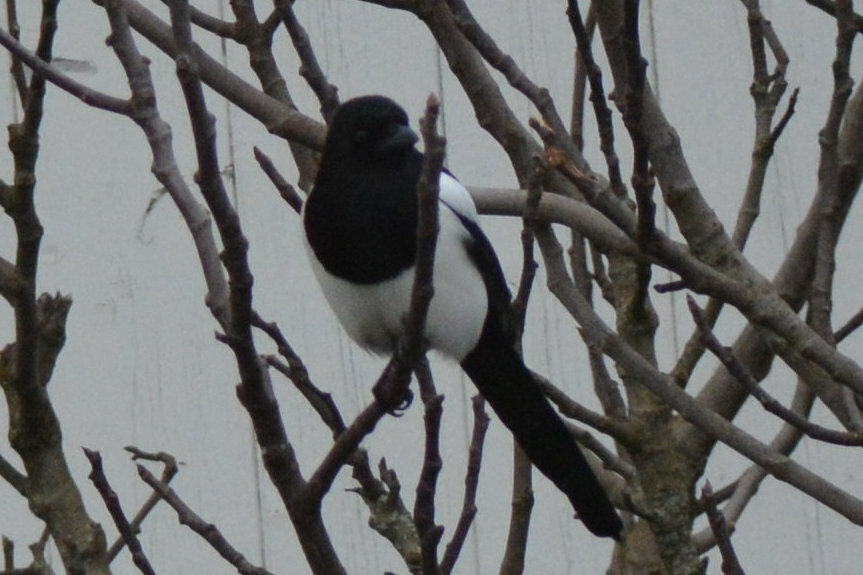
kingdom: Animalia
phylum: Chordata
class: Aves
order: Passeriformes
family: Corvidae
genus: Pica
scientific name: Pica pica
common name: Eurasian magpie
